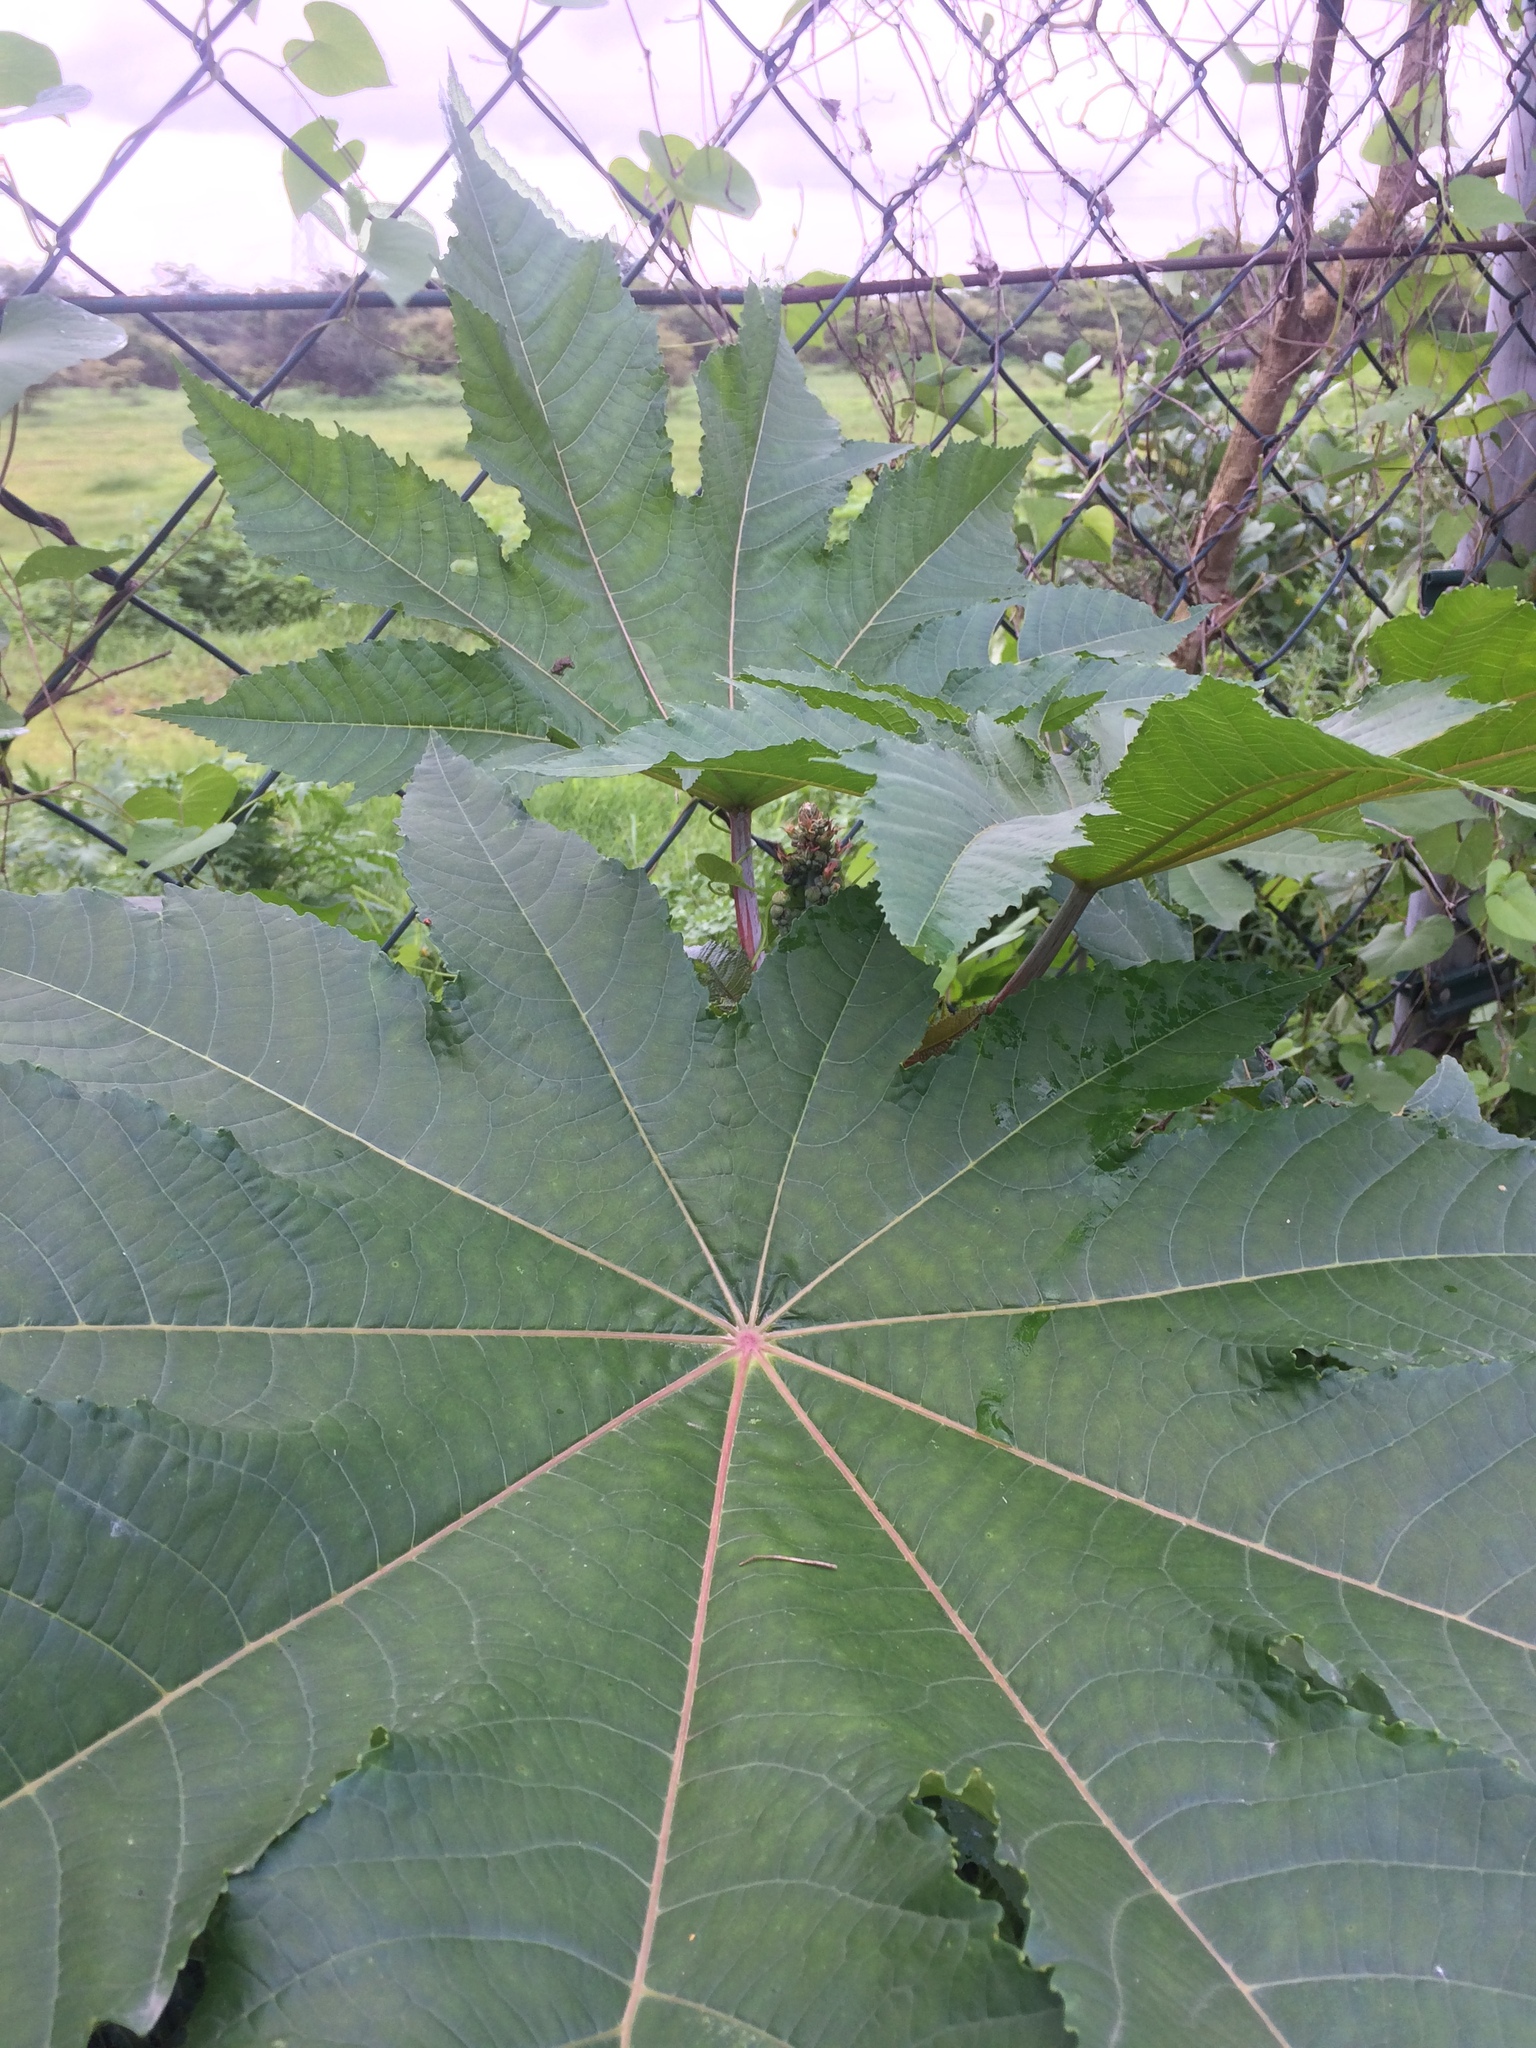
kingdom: Plantae
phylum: Tracheophyta
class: Magnoliopsida
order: Malpighiales
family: Euphorbiaceae
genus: Ricinus
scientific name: Ricinus communis
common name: Castor-oil-plant
